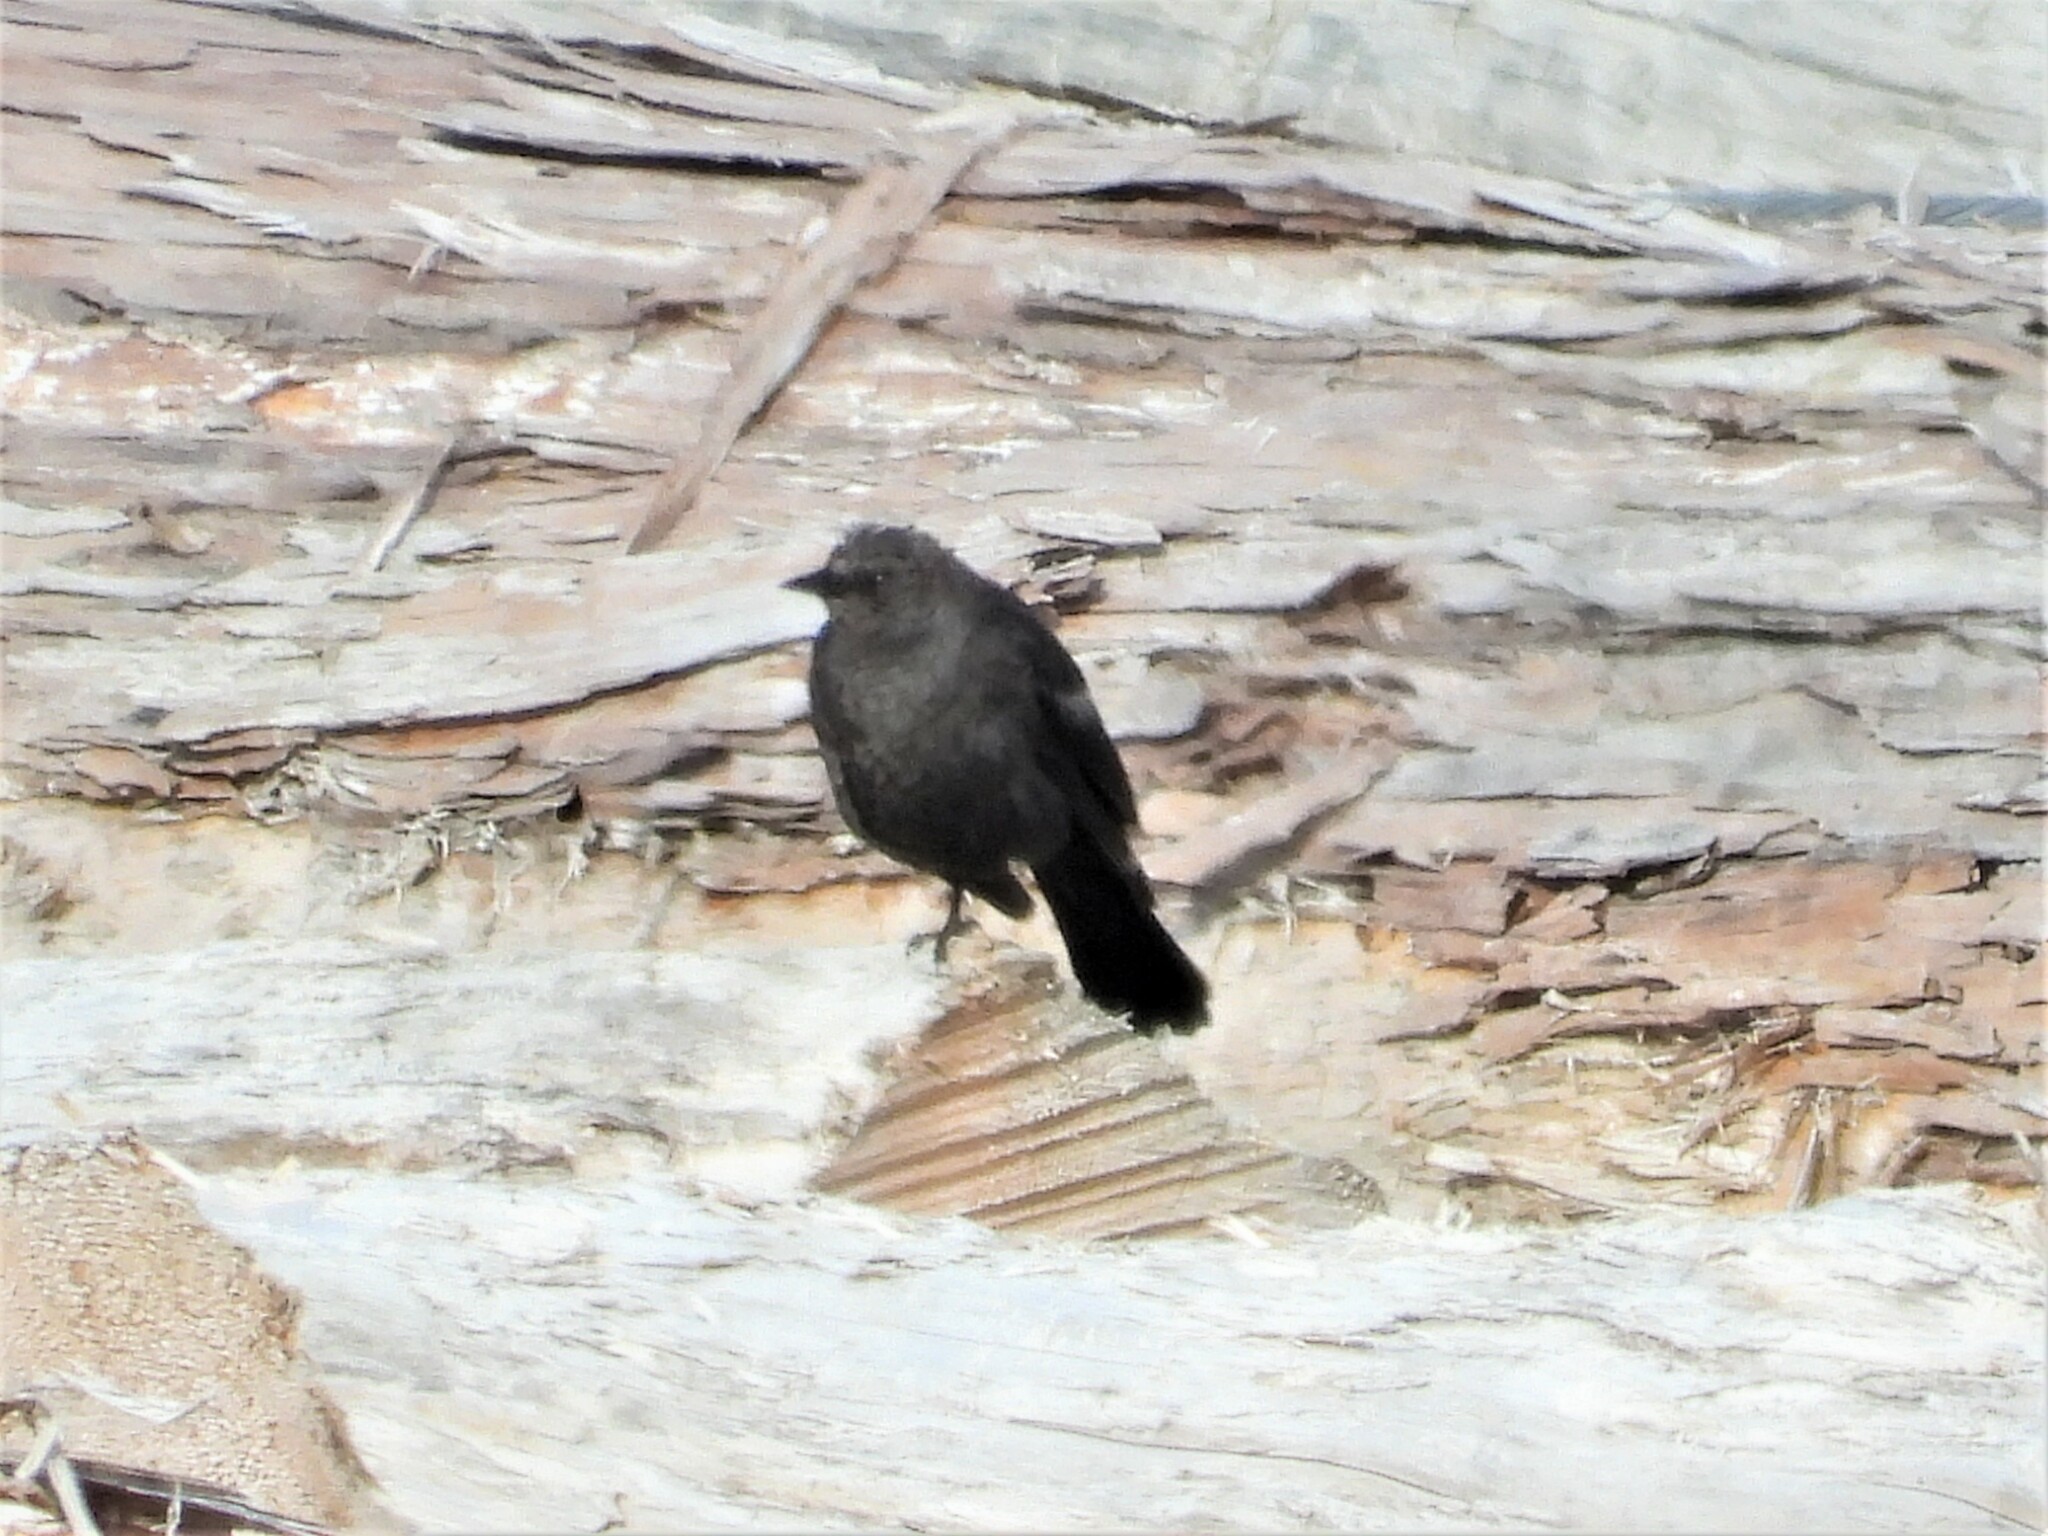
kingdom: Animalia
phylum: Chordata
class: Aves
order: Passeriformes
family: Icteridae
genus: Euphagus
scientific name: Euphagus cyanocephalus
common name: Brewer's blackbird
